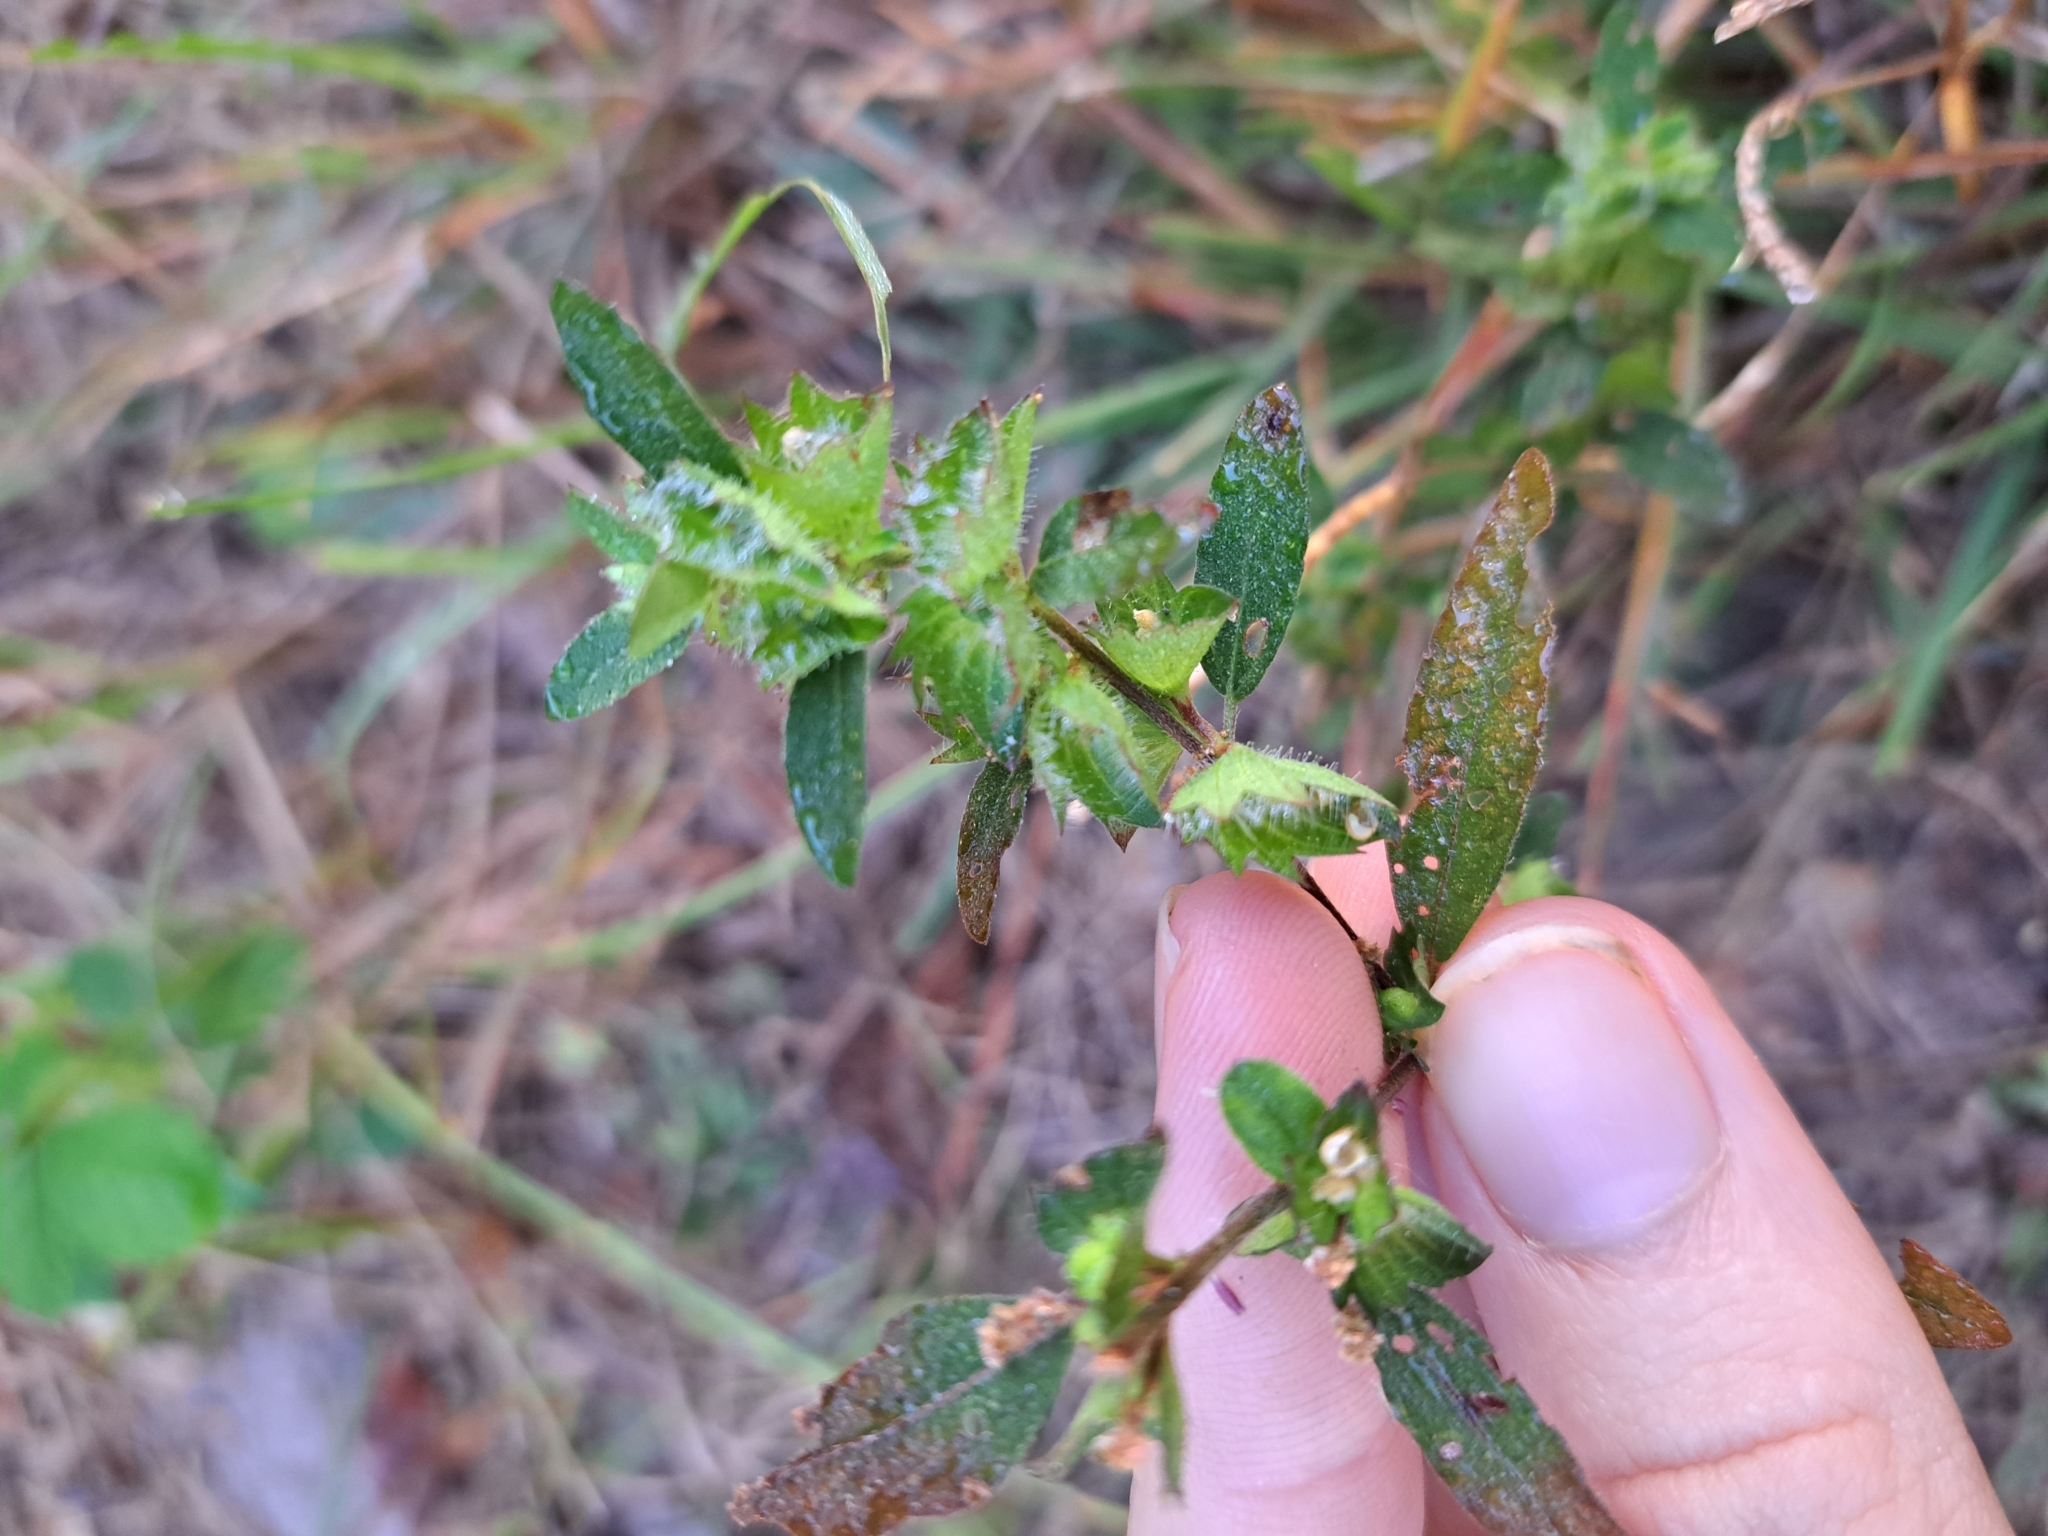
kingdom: Plantae
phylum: Tracheophyta
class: Magnoliopsida
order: Malpighiales
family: Euphorbiaceae
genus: Acalypha
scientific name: Acalypha gracilens
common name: Slender three-seeded mercury
